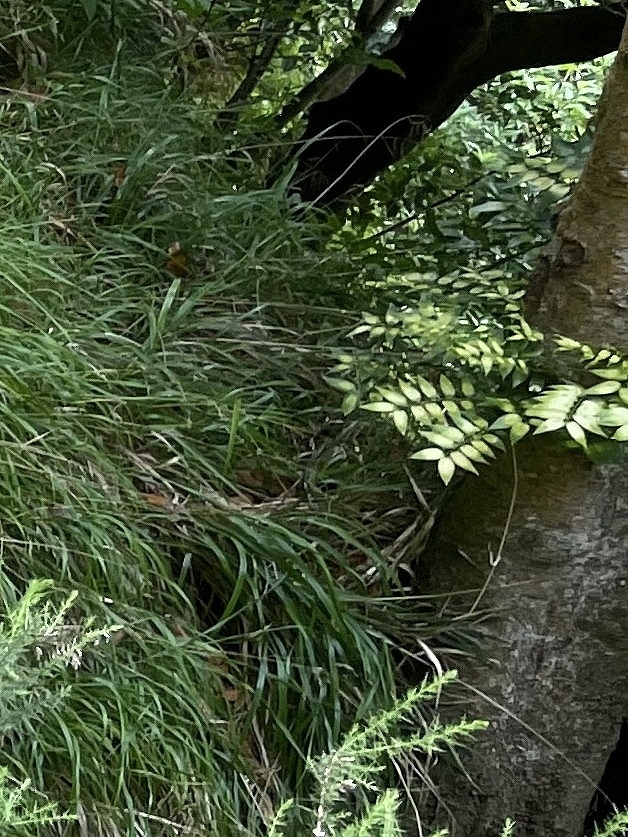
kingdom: Plantae
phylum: Tracheophyta
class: Liliopsida
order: Asparagales
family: Asparagaceae
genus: Semele
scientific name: Semele androgyna
